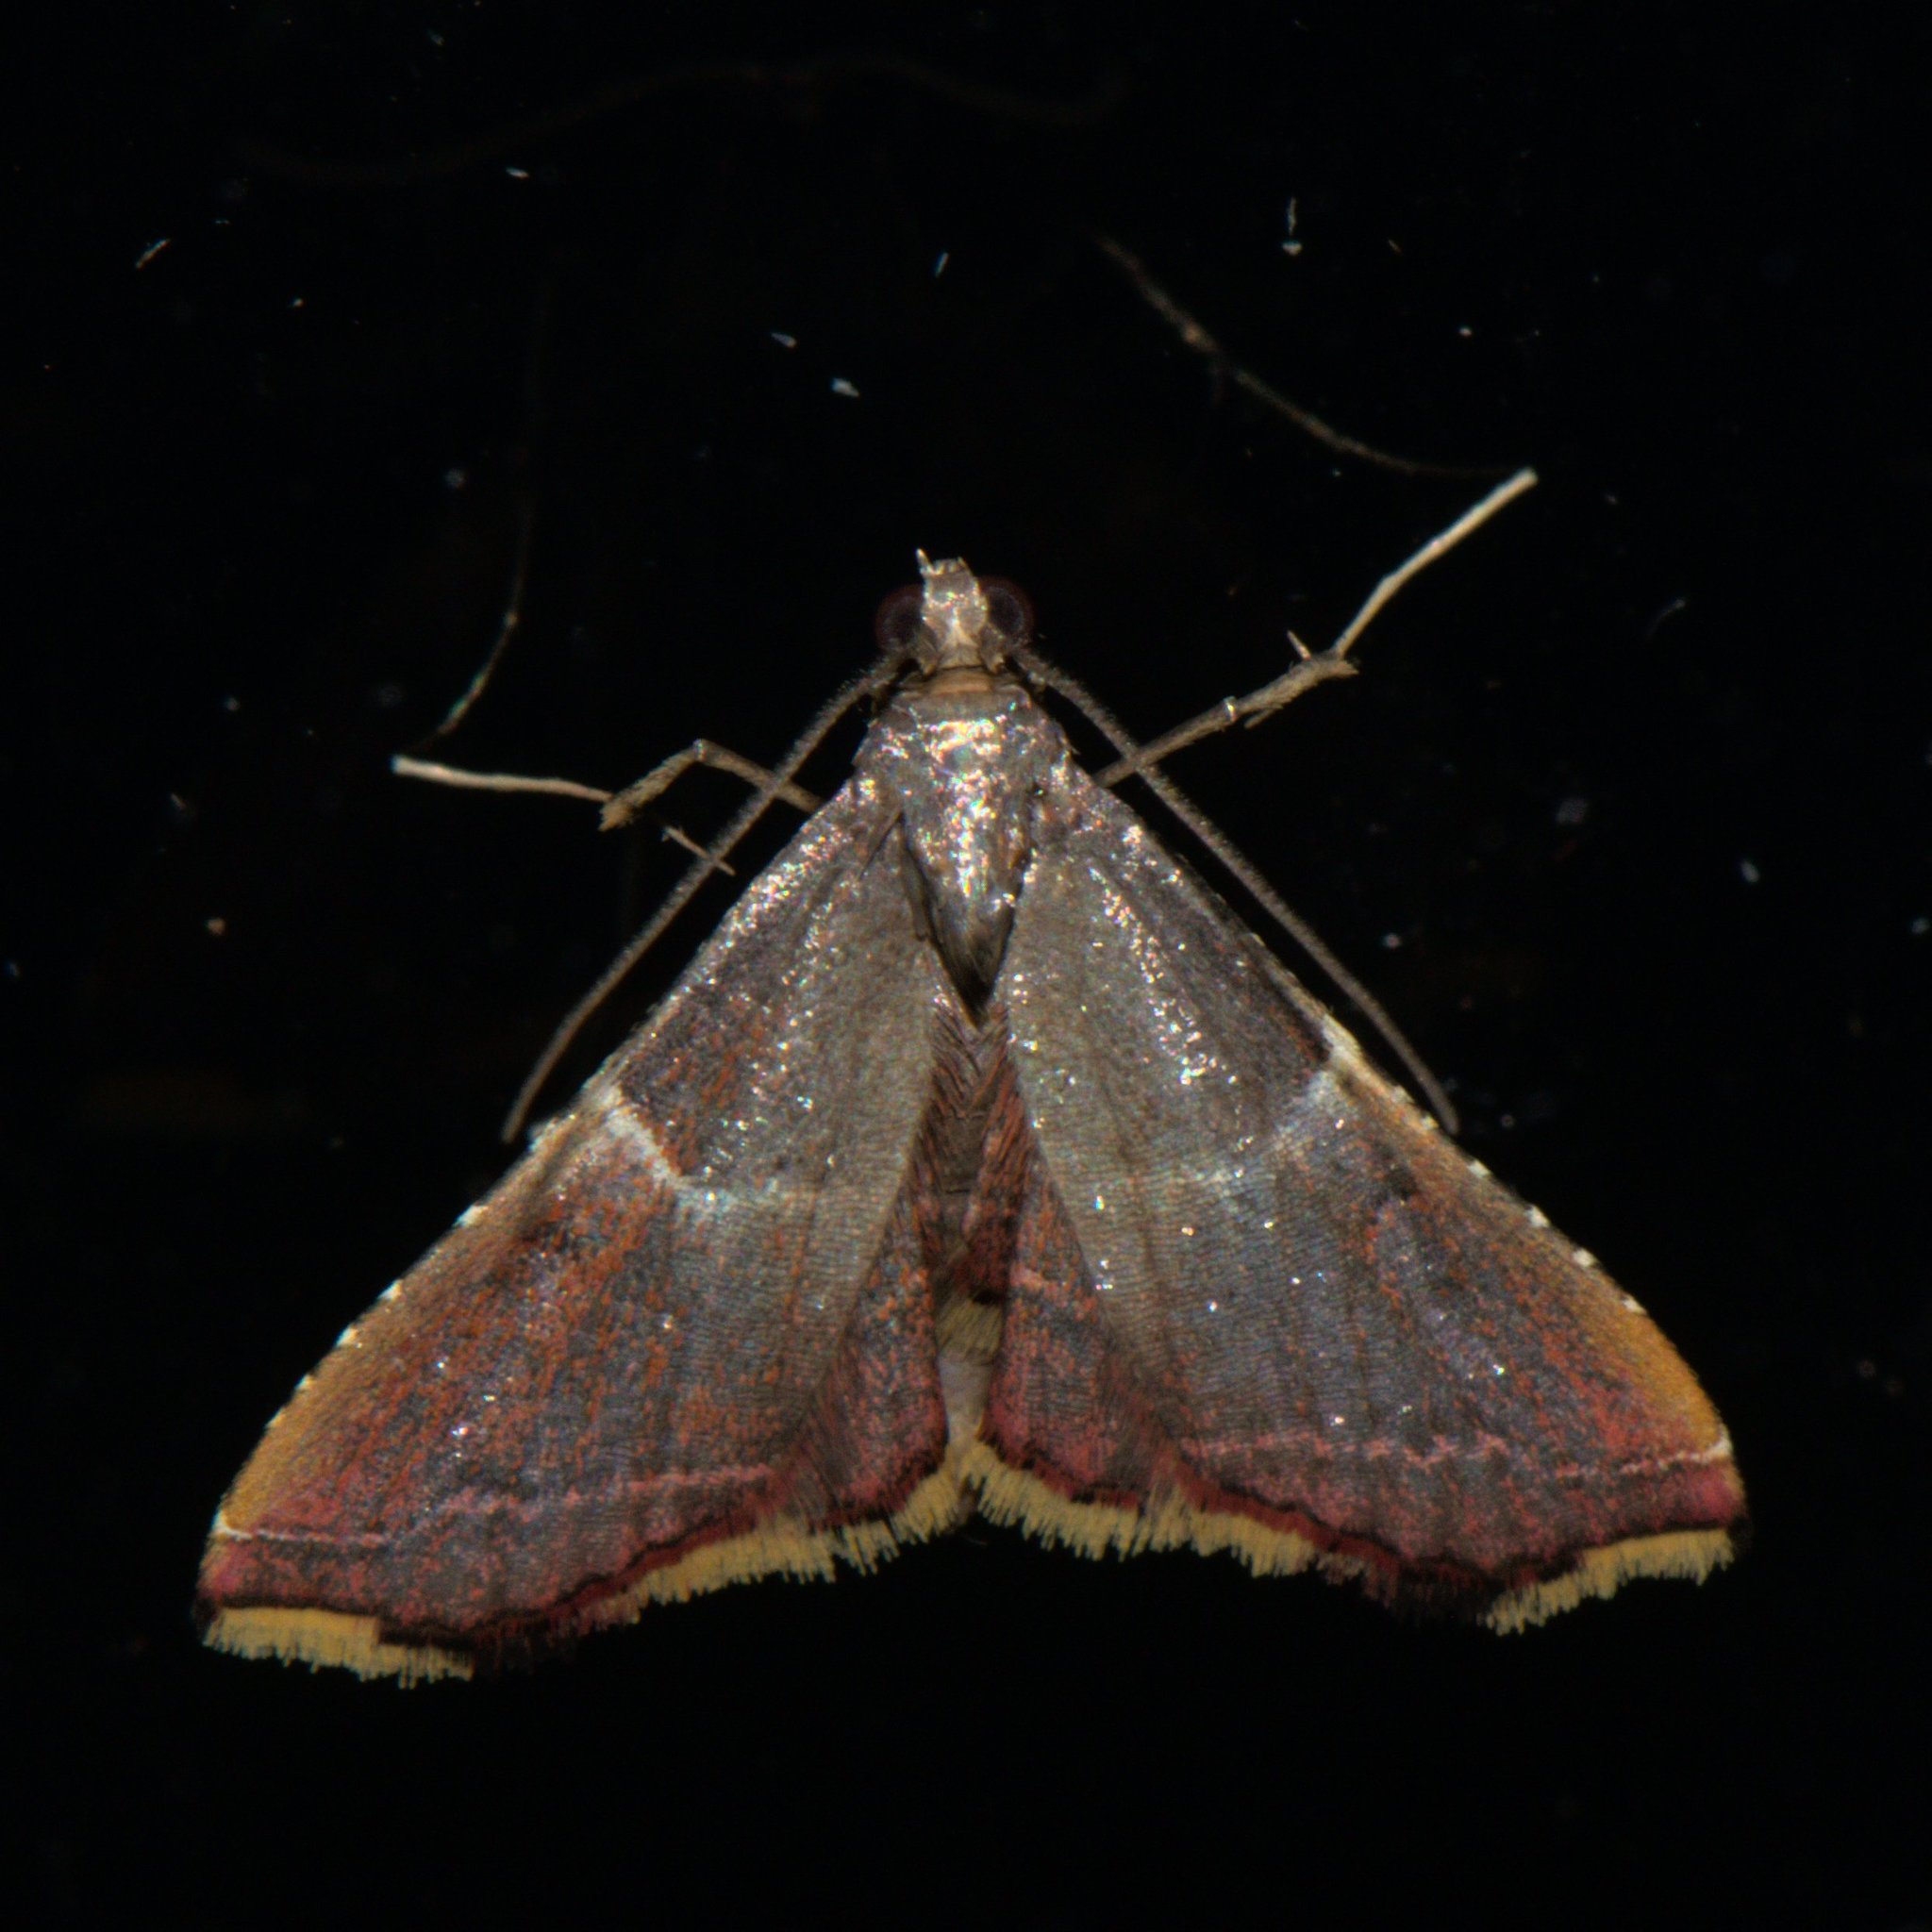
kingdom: Animalia
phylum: Arthropoda
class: Insecta
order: Lepidoptera
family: Pyralidae
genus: Endotricha
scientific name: Endotricha similata
